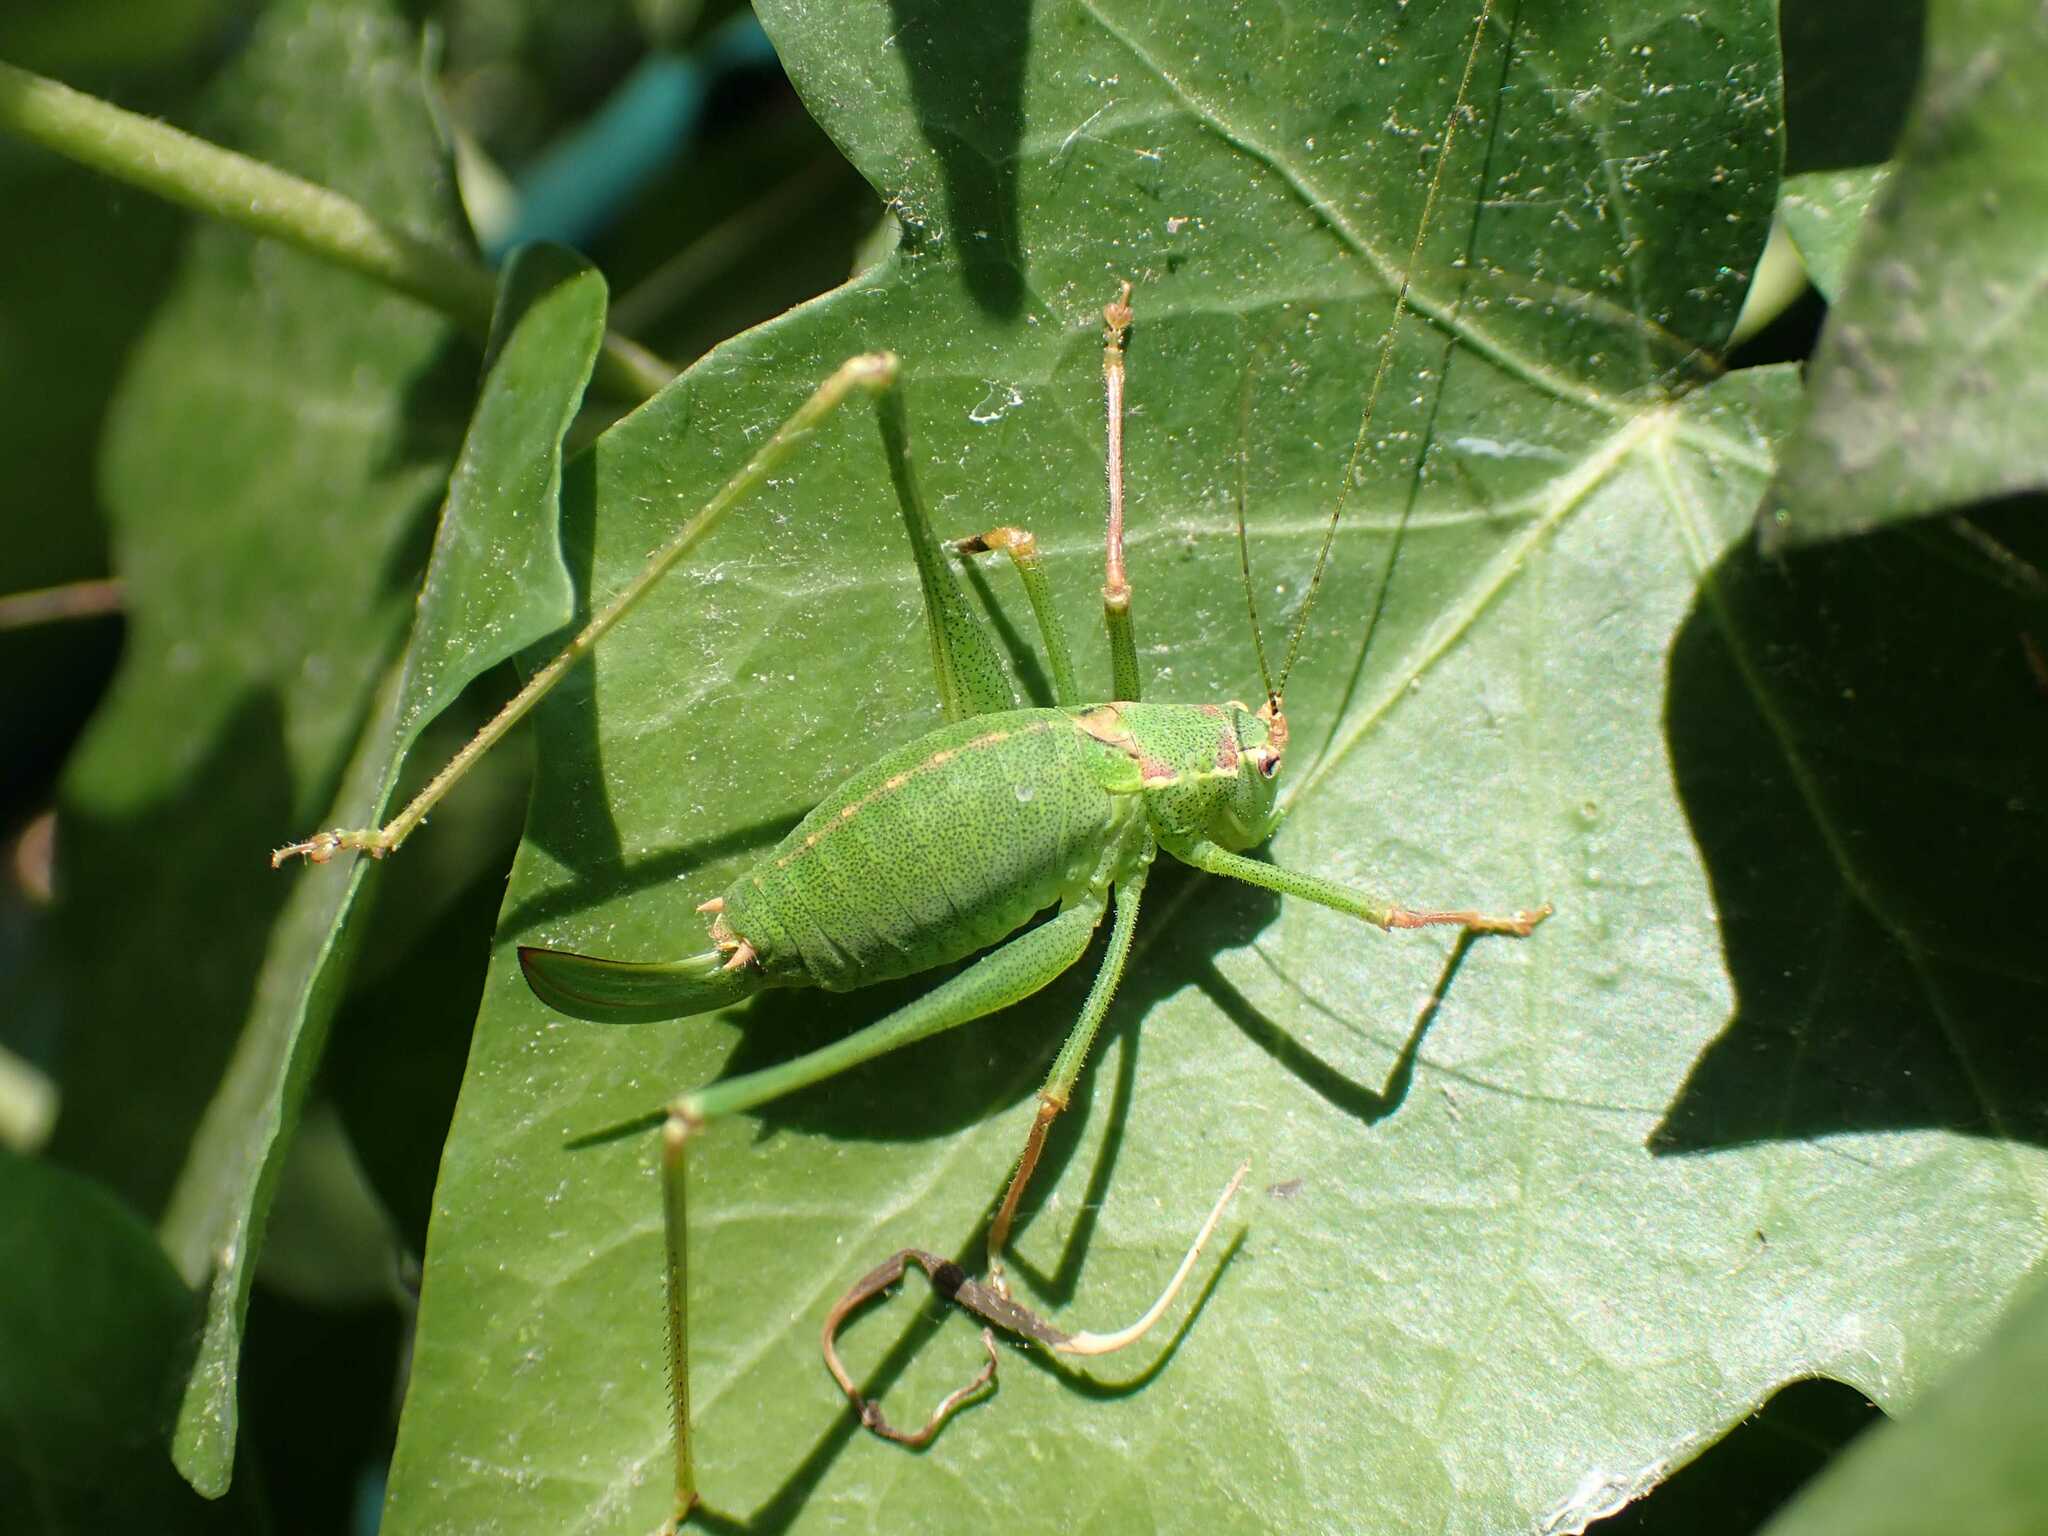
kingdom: Animalia
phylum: Arthropoda
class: Insecta
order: Orthoptera
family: Tettigoniidae
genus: Leptophyes
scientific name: Leptophyes punctatissima
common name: Speckled bush-cricket
